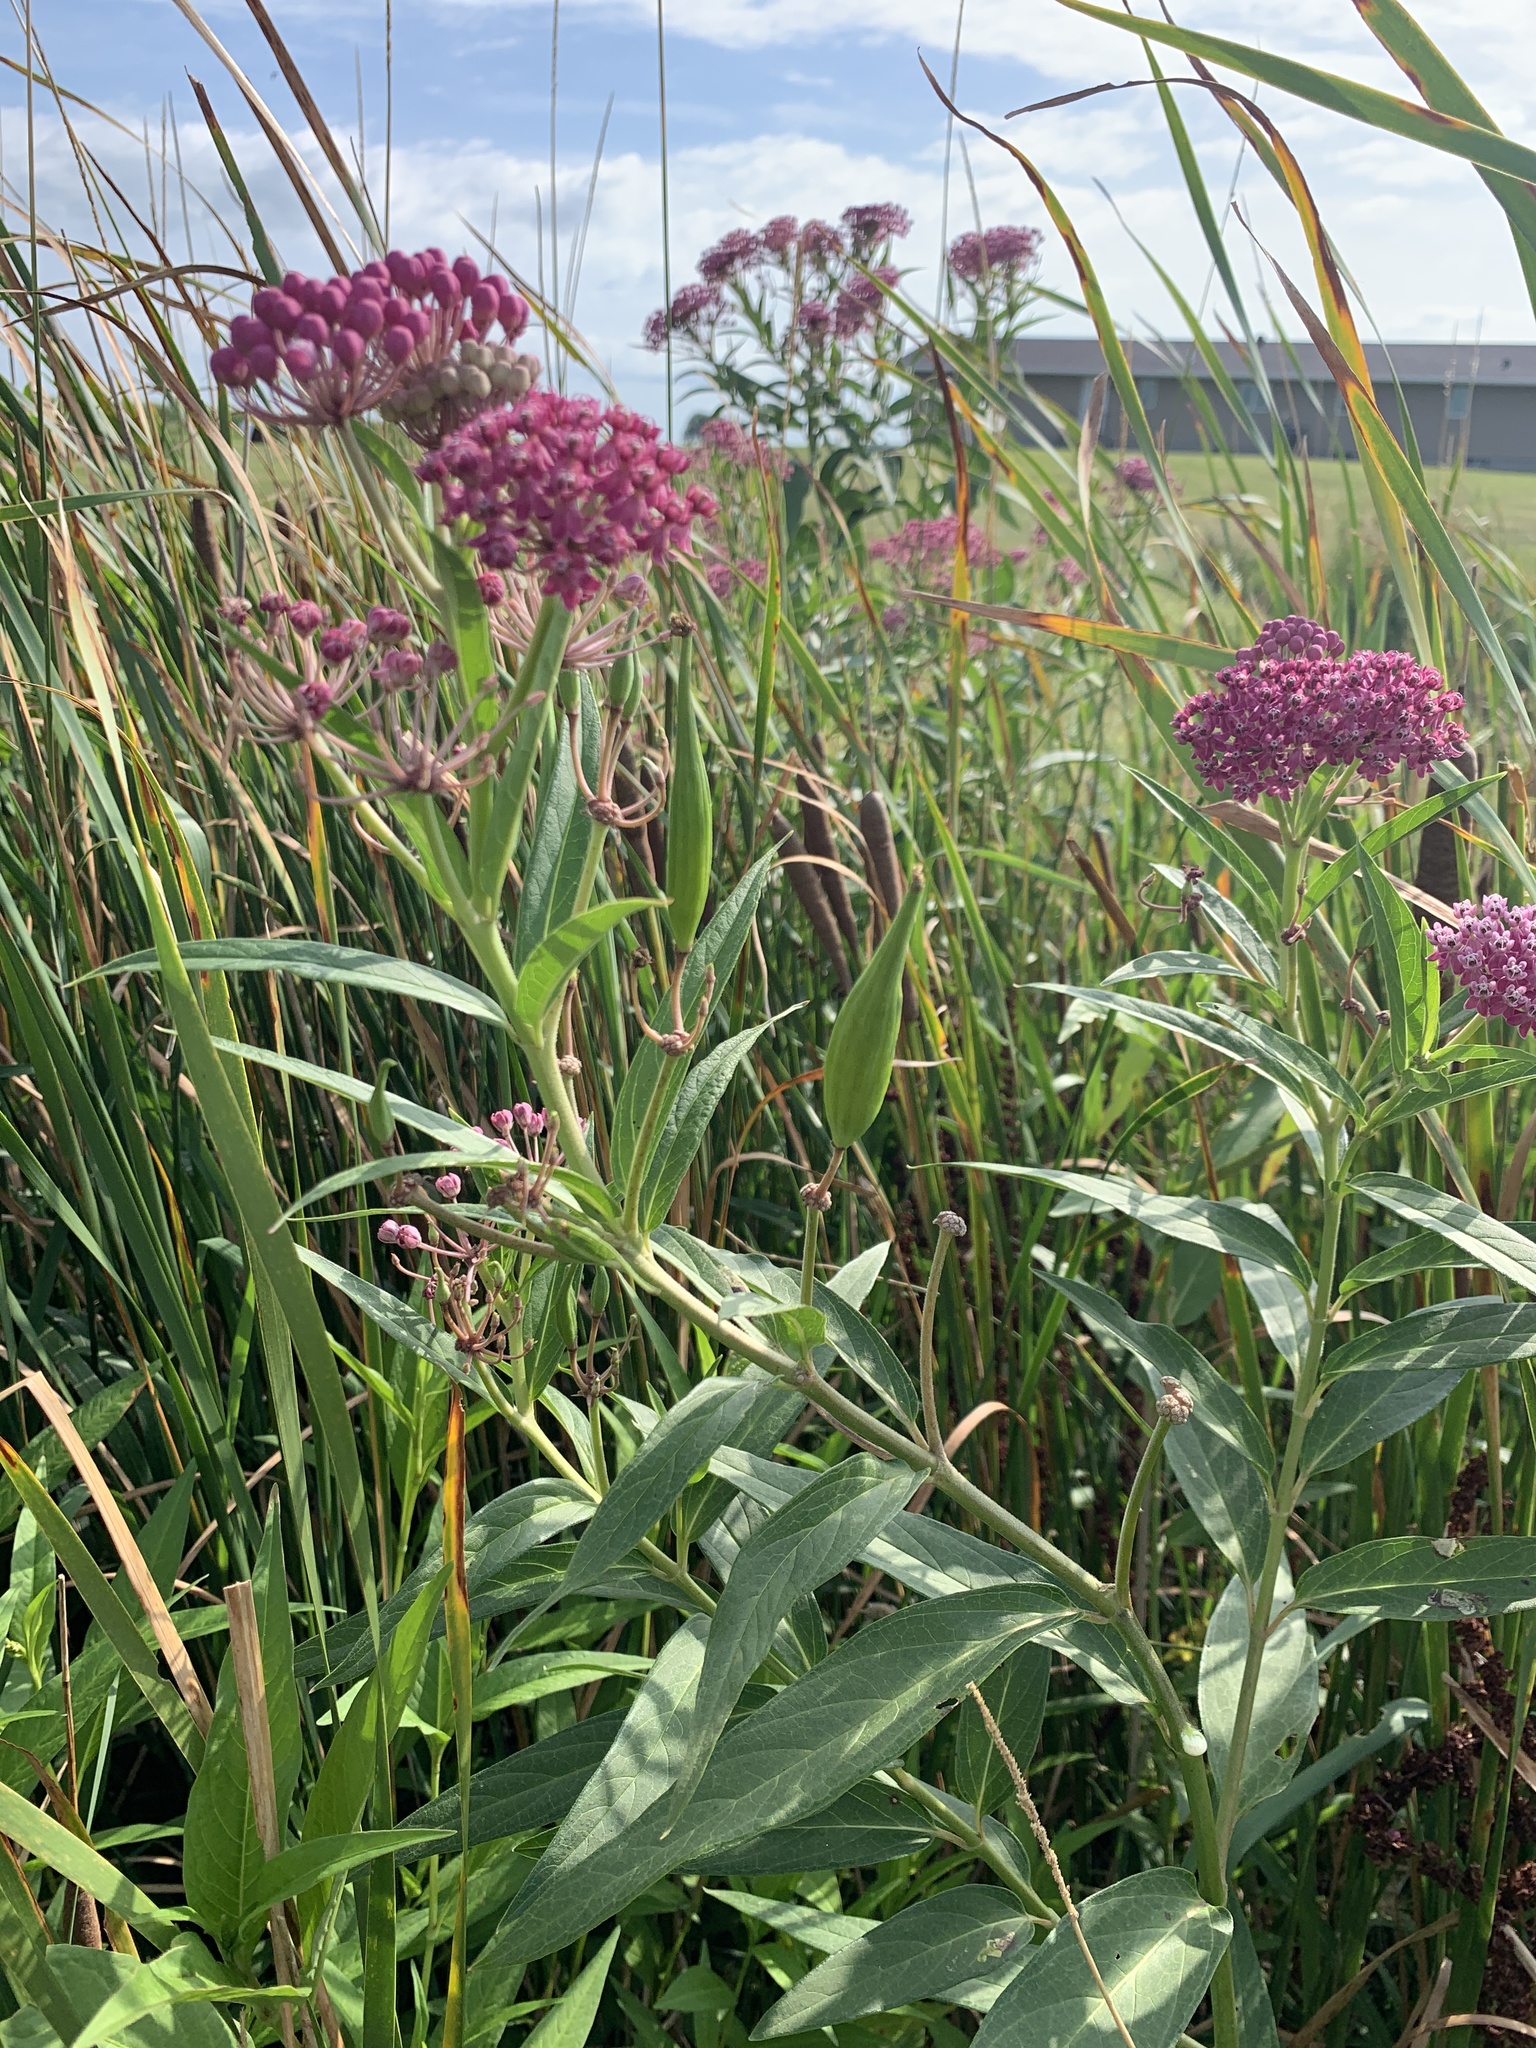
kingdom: Plantae
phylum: Tracheophyta
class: Magnoliopsida
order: Gentianales
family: Apocynaceae
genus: Asclepias
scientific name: Asclepias incarnata
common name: Swamp milkweed
